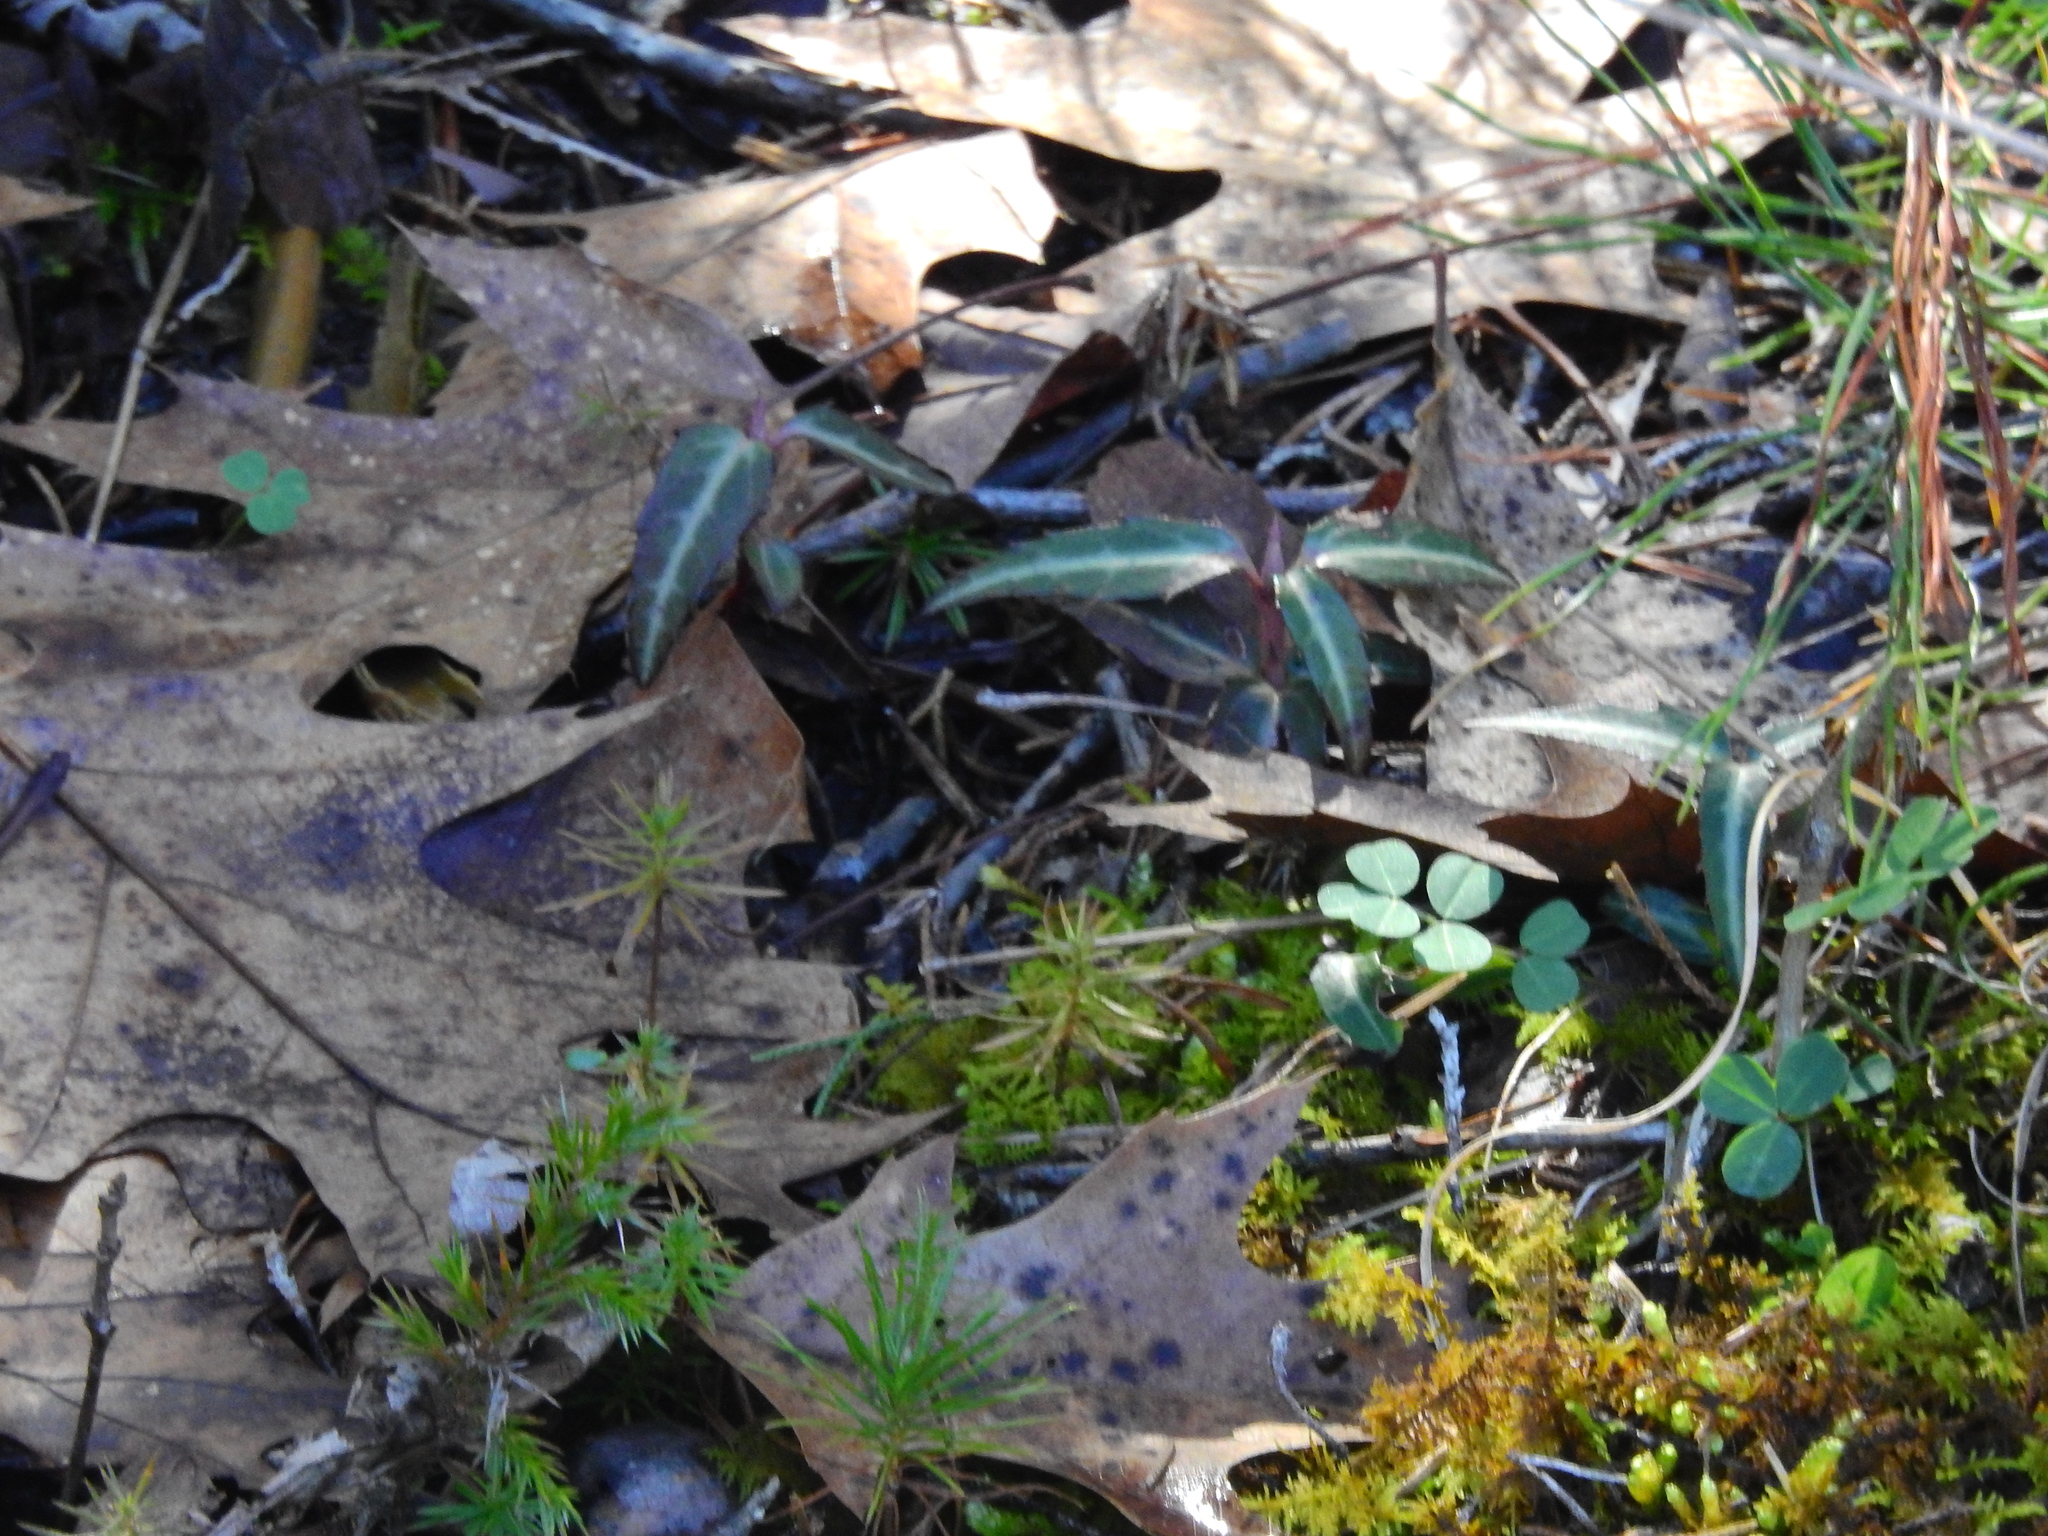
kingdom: Plantae
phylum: Tracheophyta
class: Magnoliopsida
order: Ericales
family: Ericaceae
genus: Chimaphila
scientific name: Chimaphila maculata
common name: Spotted pipsissewa
